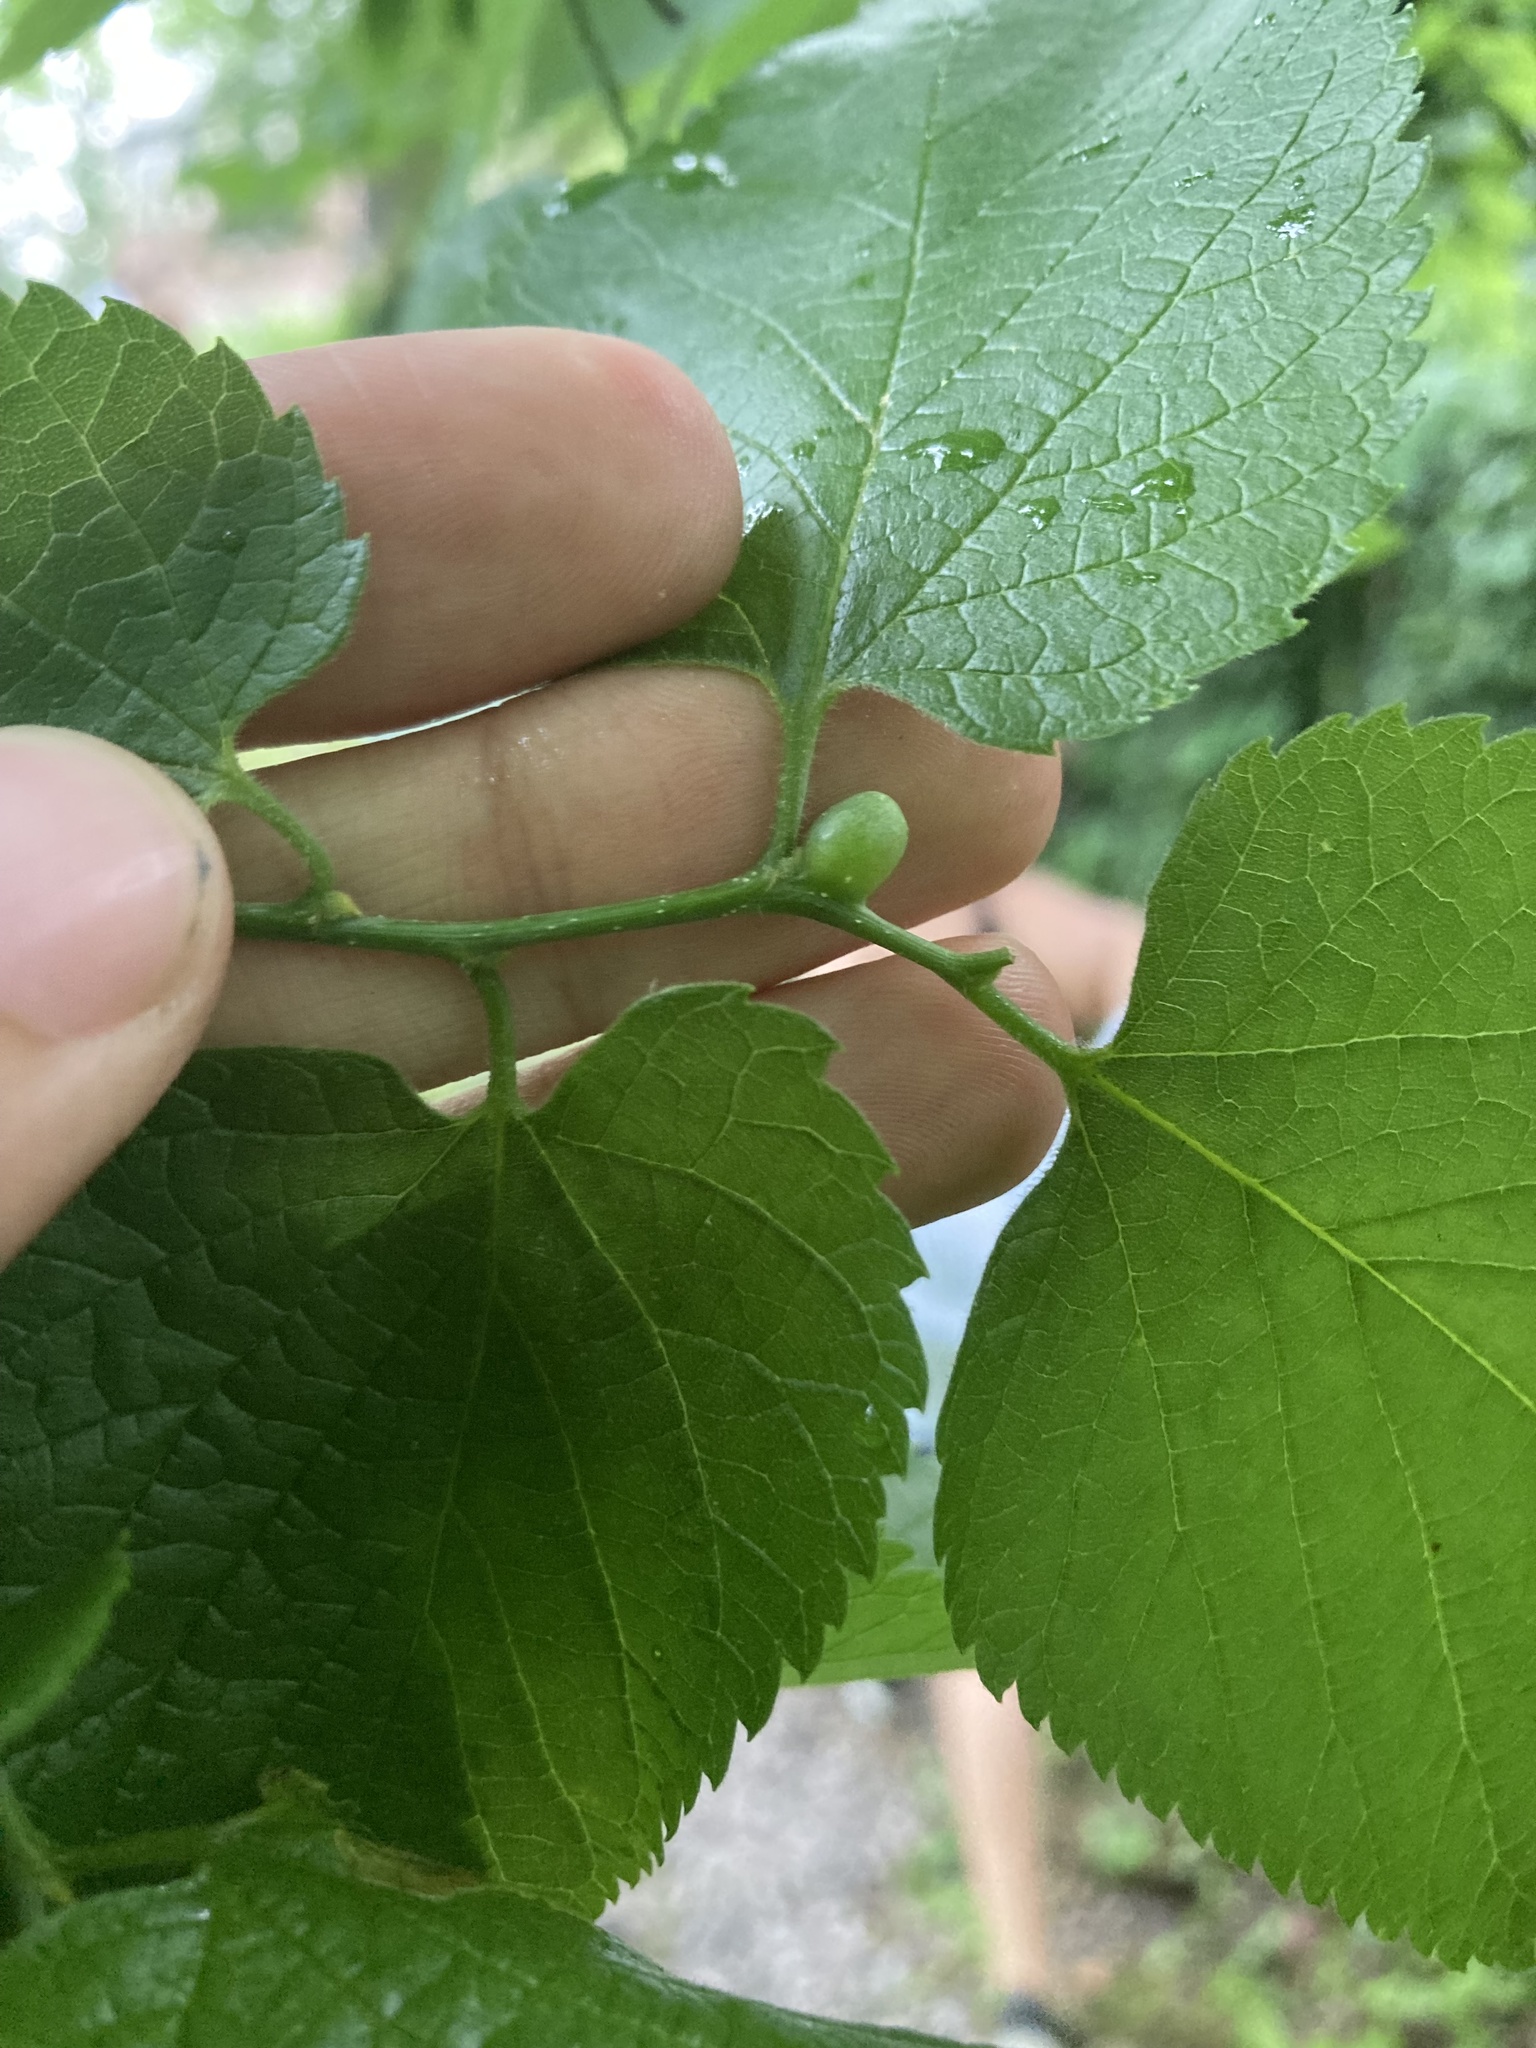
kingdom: Animalia
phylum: Arthropoda
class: Insecta
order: Diptera
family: Cecidomyiidae
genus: Celticecis
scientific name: Celticecis expulsa
